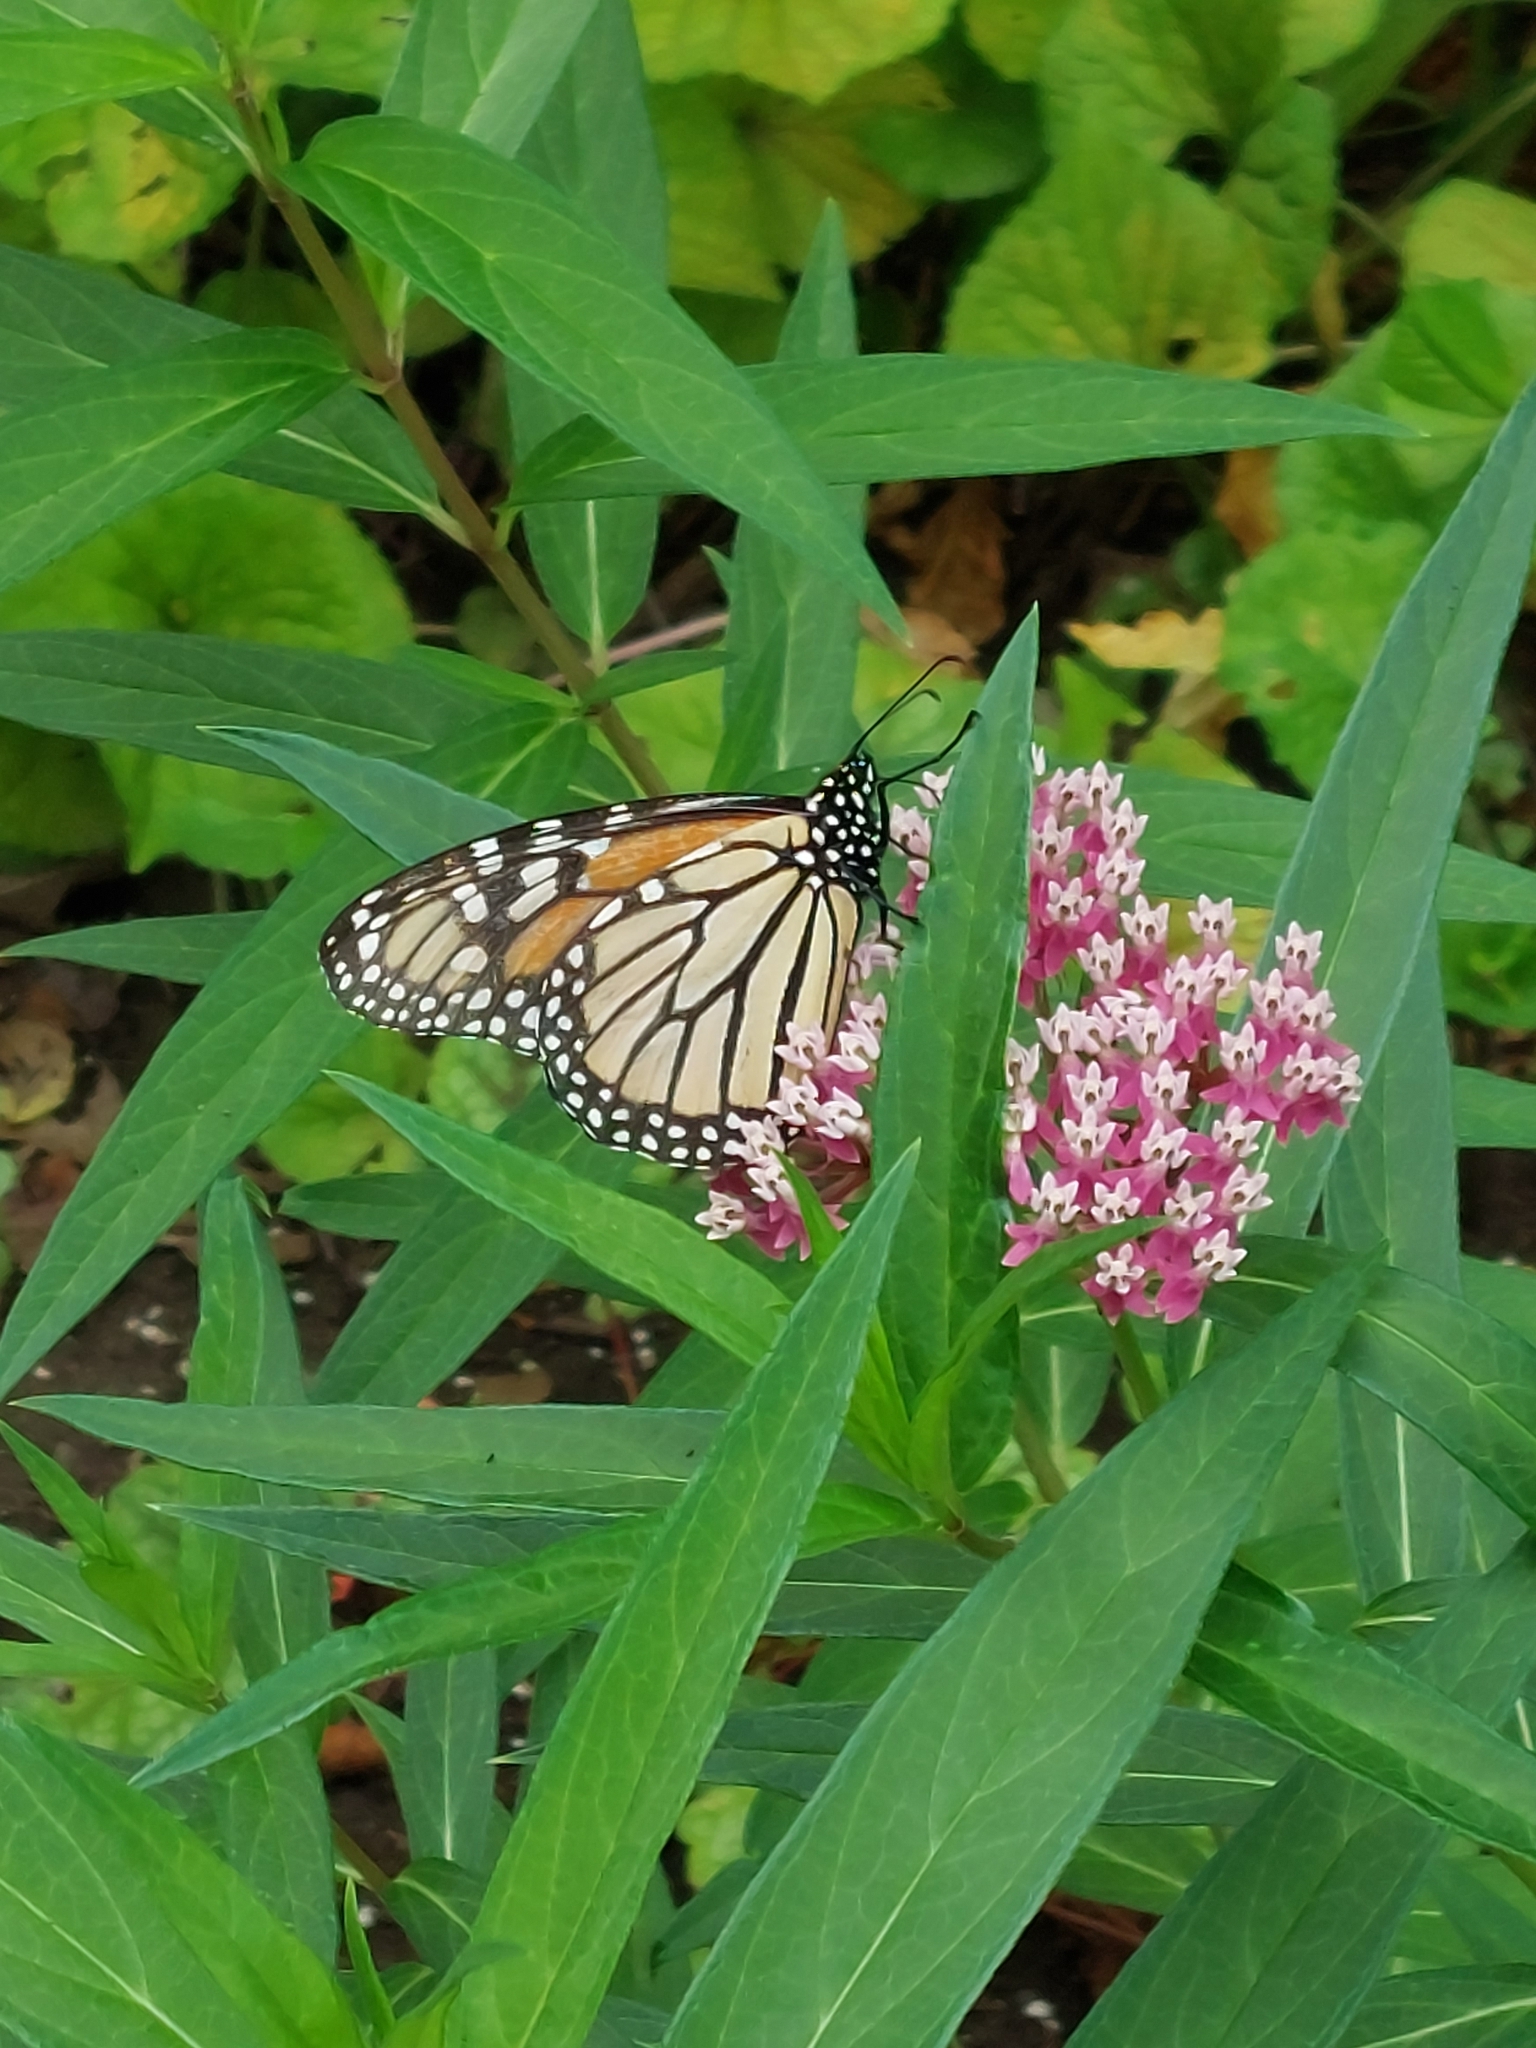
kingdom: Animalia
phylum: Arthropoda
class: Insecta
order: Lepidoptera
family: Nymphalidae
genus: Danaus
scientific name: Danaus plexippus
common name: Monarch
